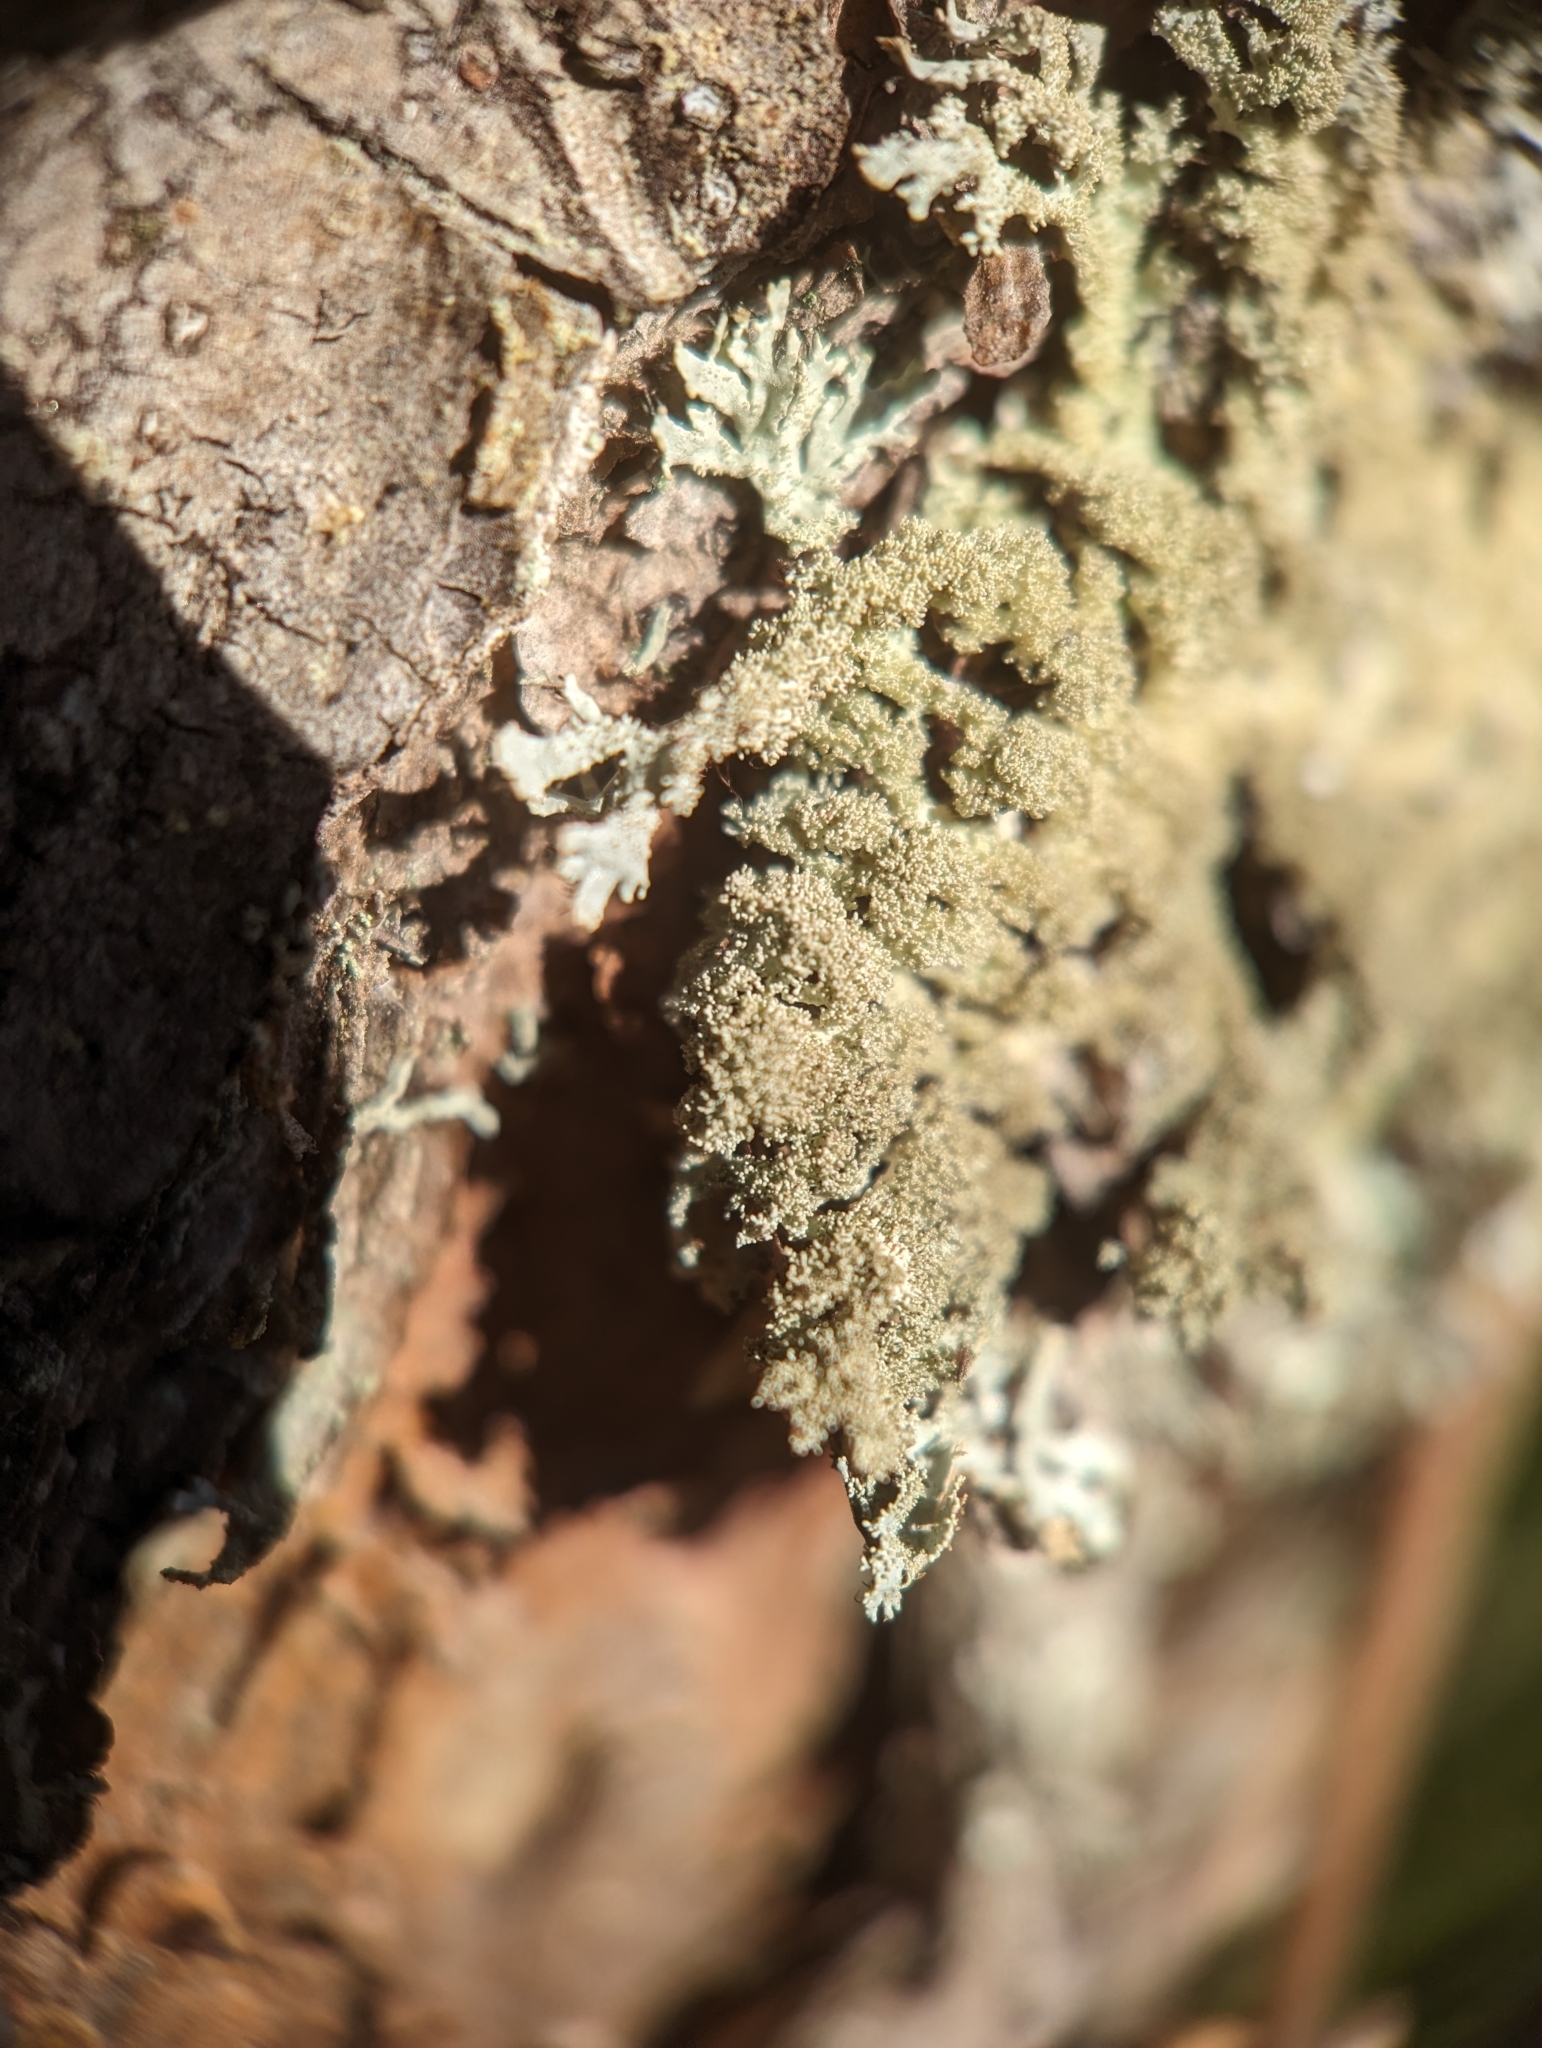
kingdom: Fungi
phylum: Ascomycota
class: Lecanoromycetes
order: Lecanorales
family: Parmeliaceae
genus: Imshaugia
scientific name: Imshaugia aleurites
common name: Salted starburst lichen
